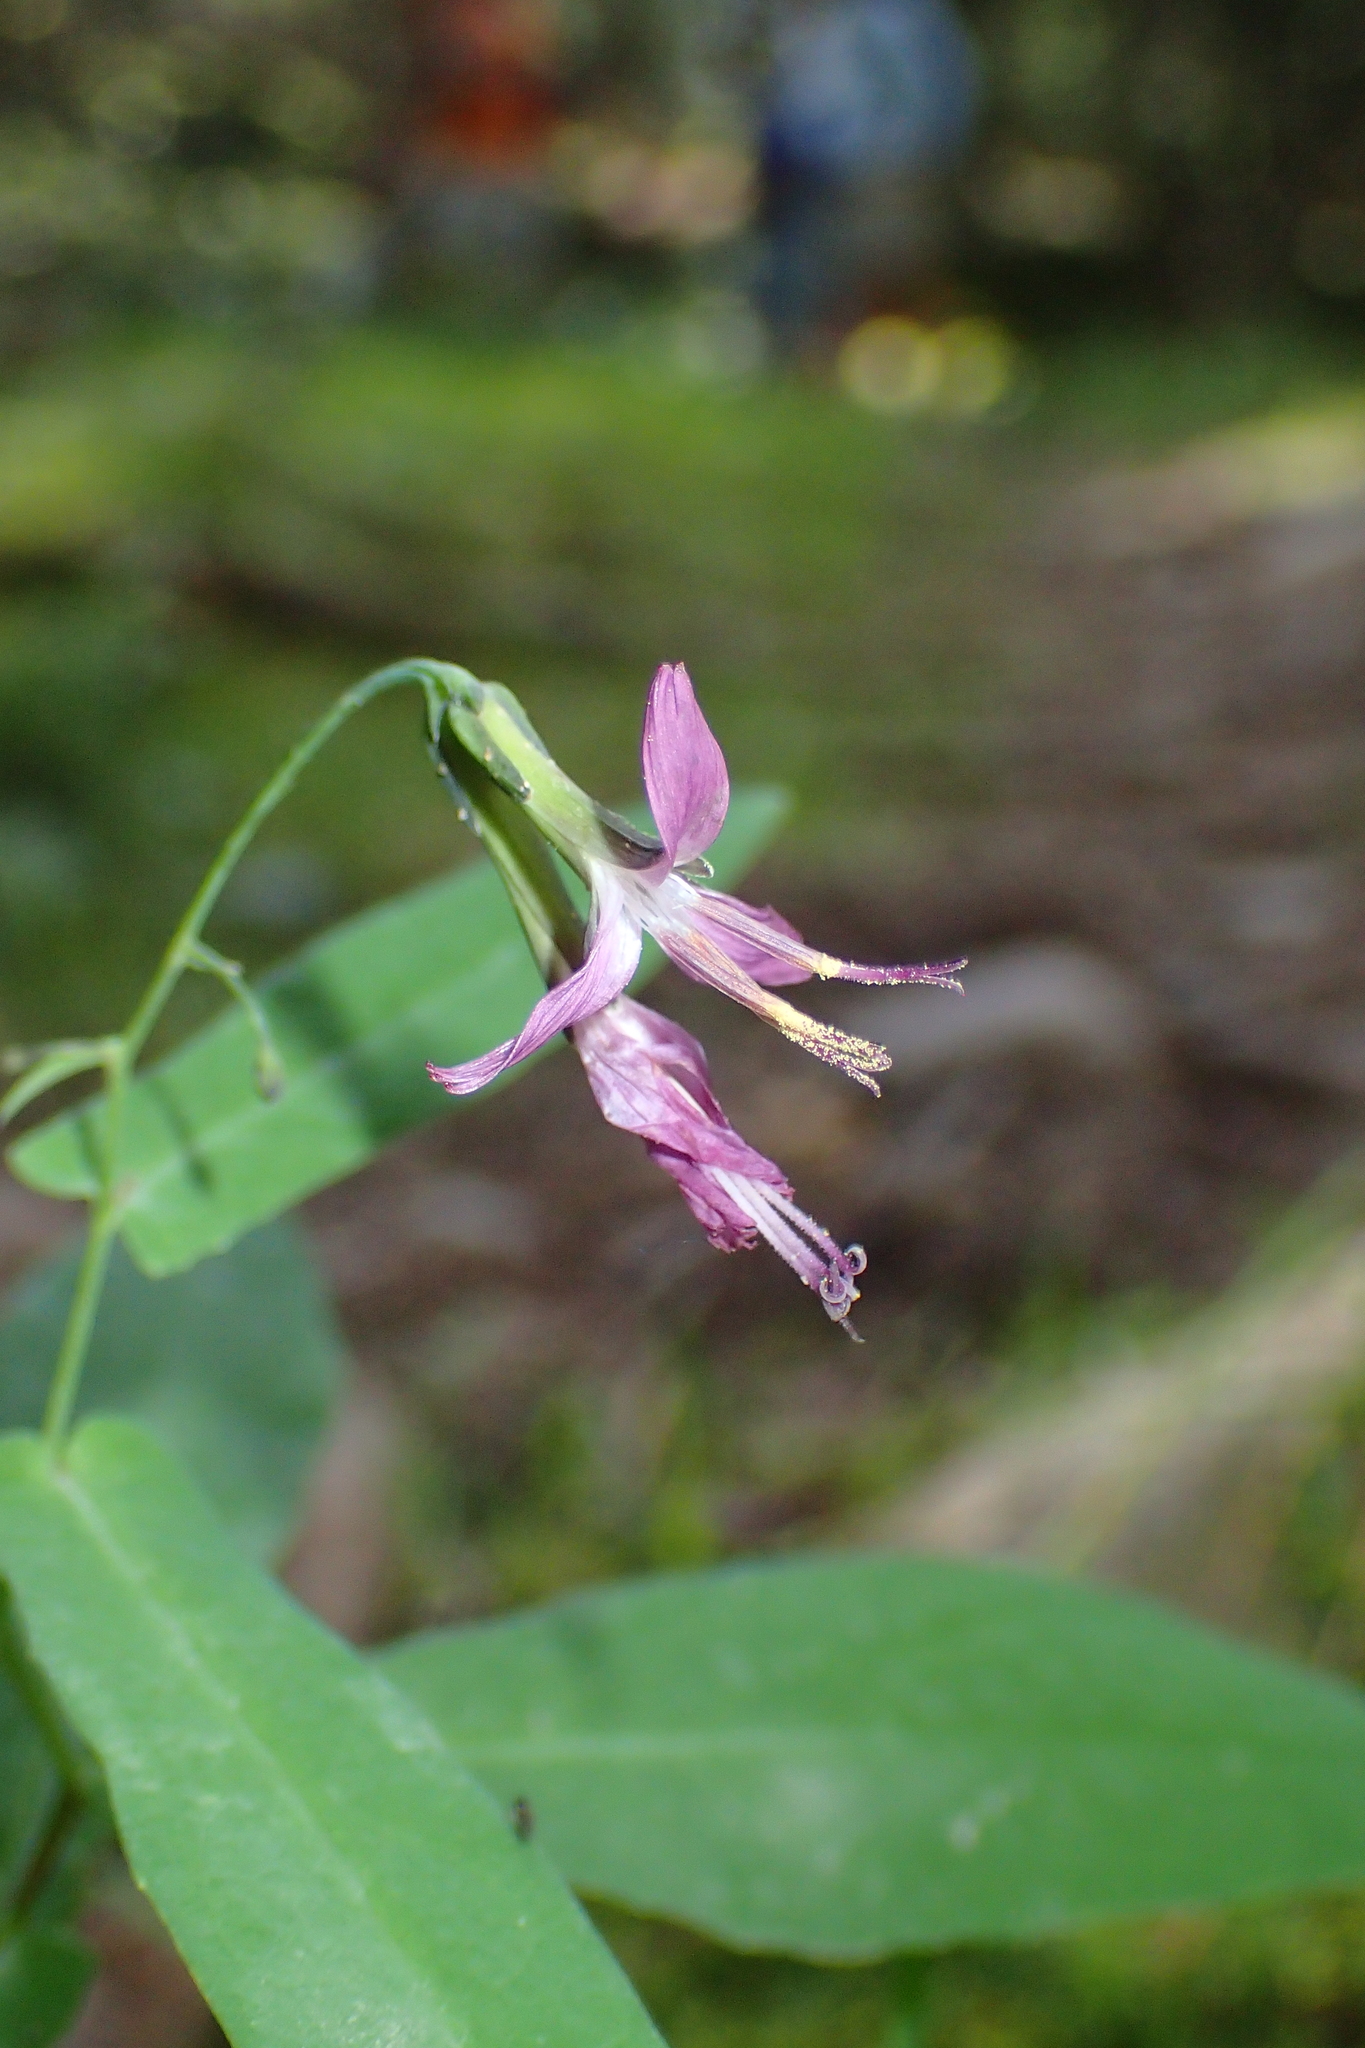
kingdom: Plantae
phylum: Tracheophyta
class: Magnoliopsida
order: Asterales
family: Asteraceae
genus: Prenanthes
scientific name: Prenanthes purpurea
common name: Purple lettuce
